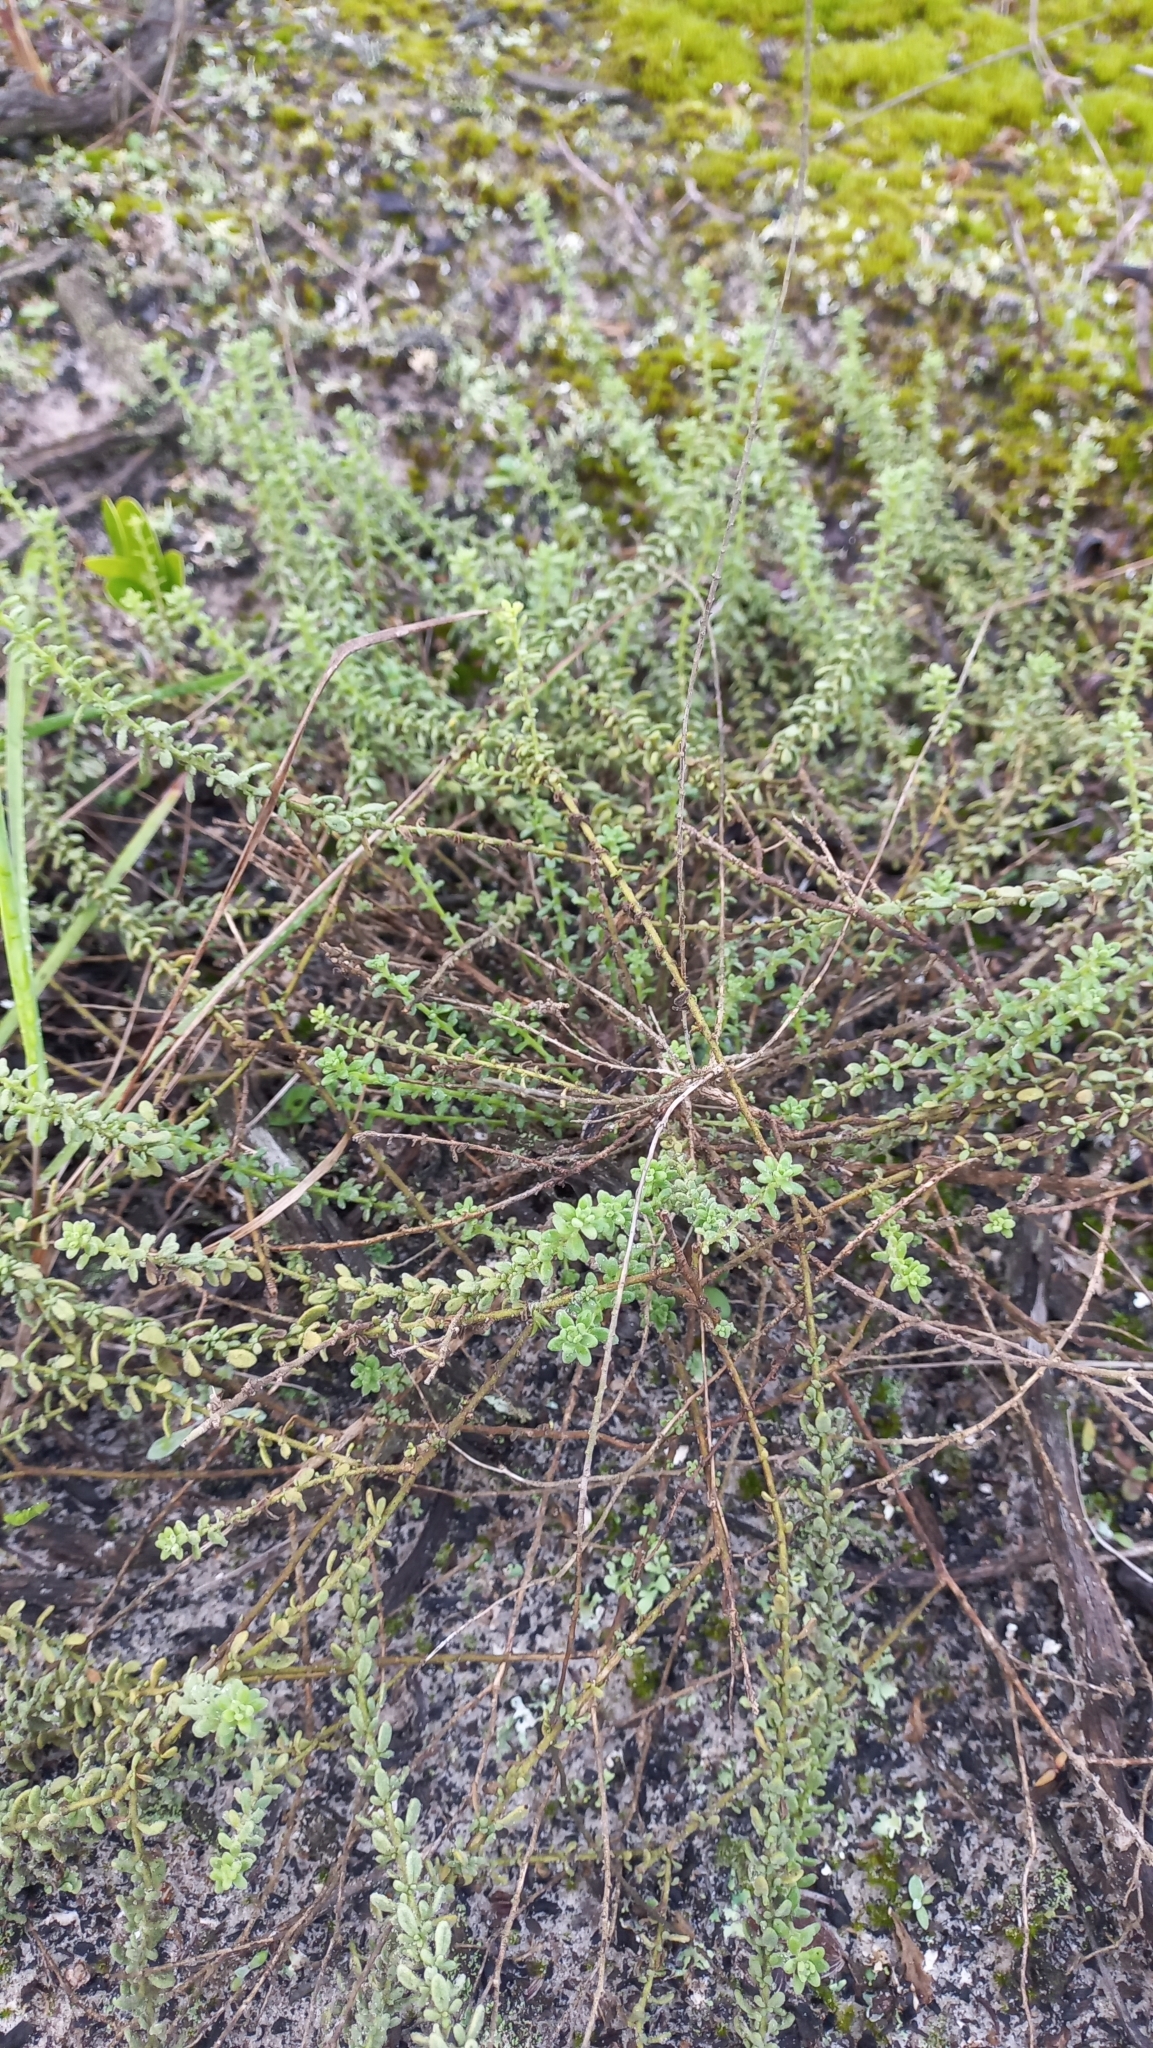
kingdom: Plantae
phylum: Tracheophyta
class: Magnoliopsida
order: Solanales
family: Solanaceae
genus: Calibrachoa
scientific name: Calibrachoa heterophylla
